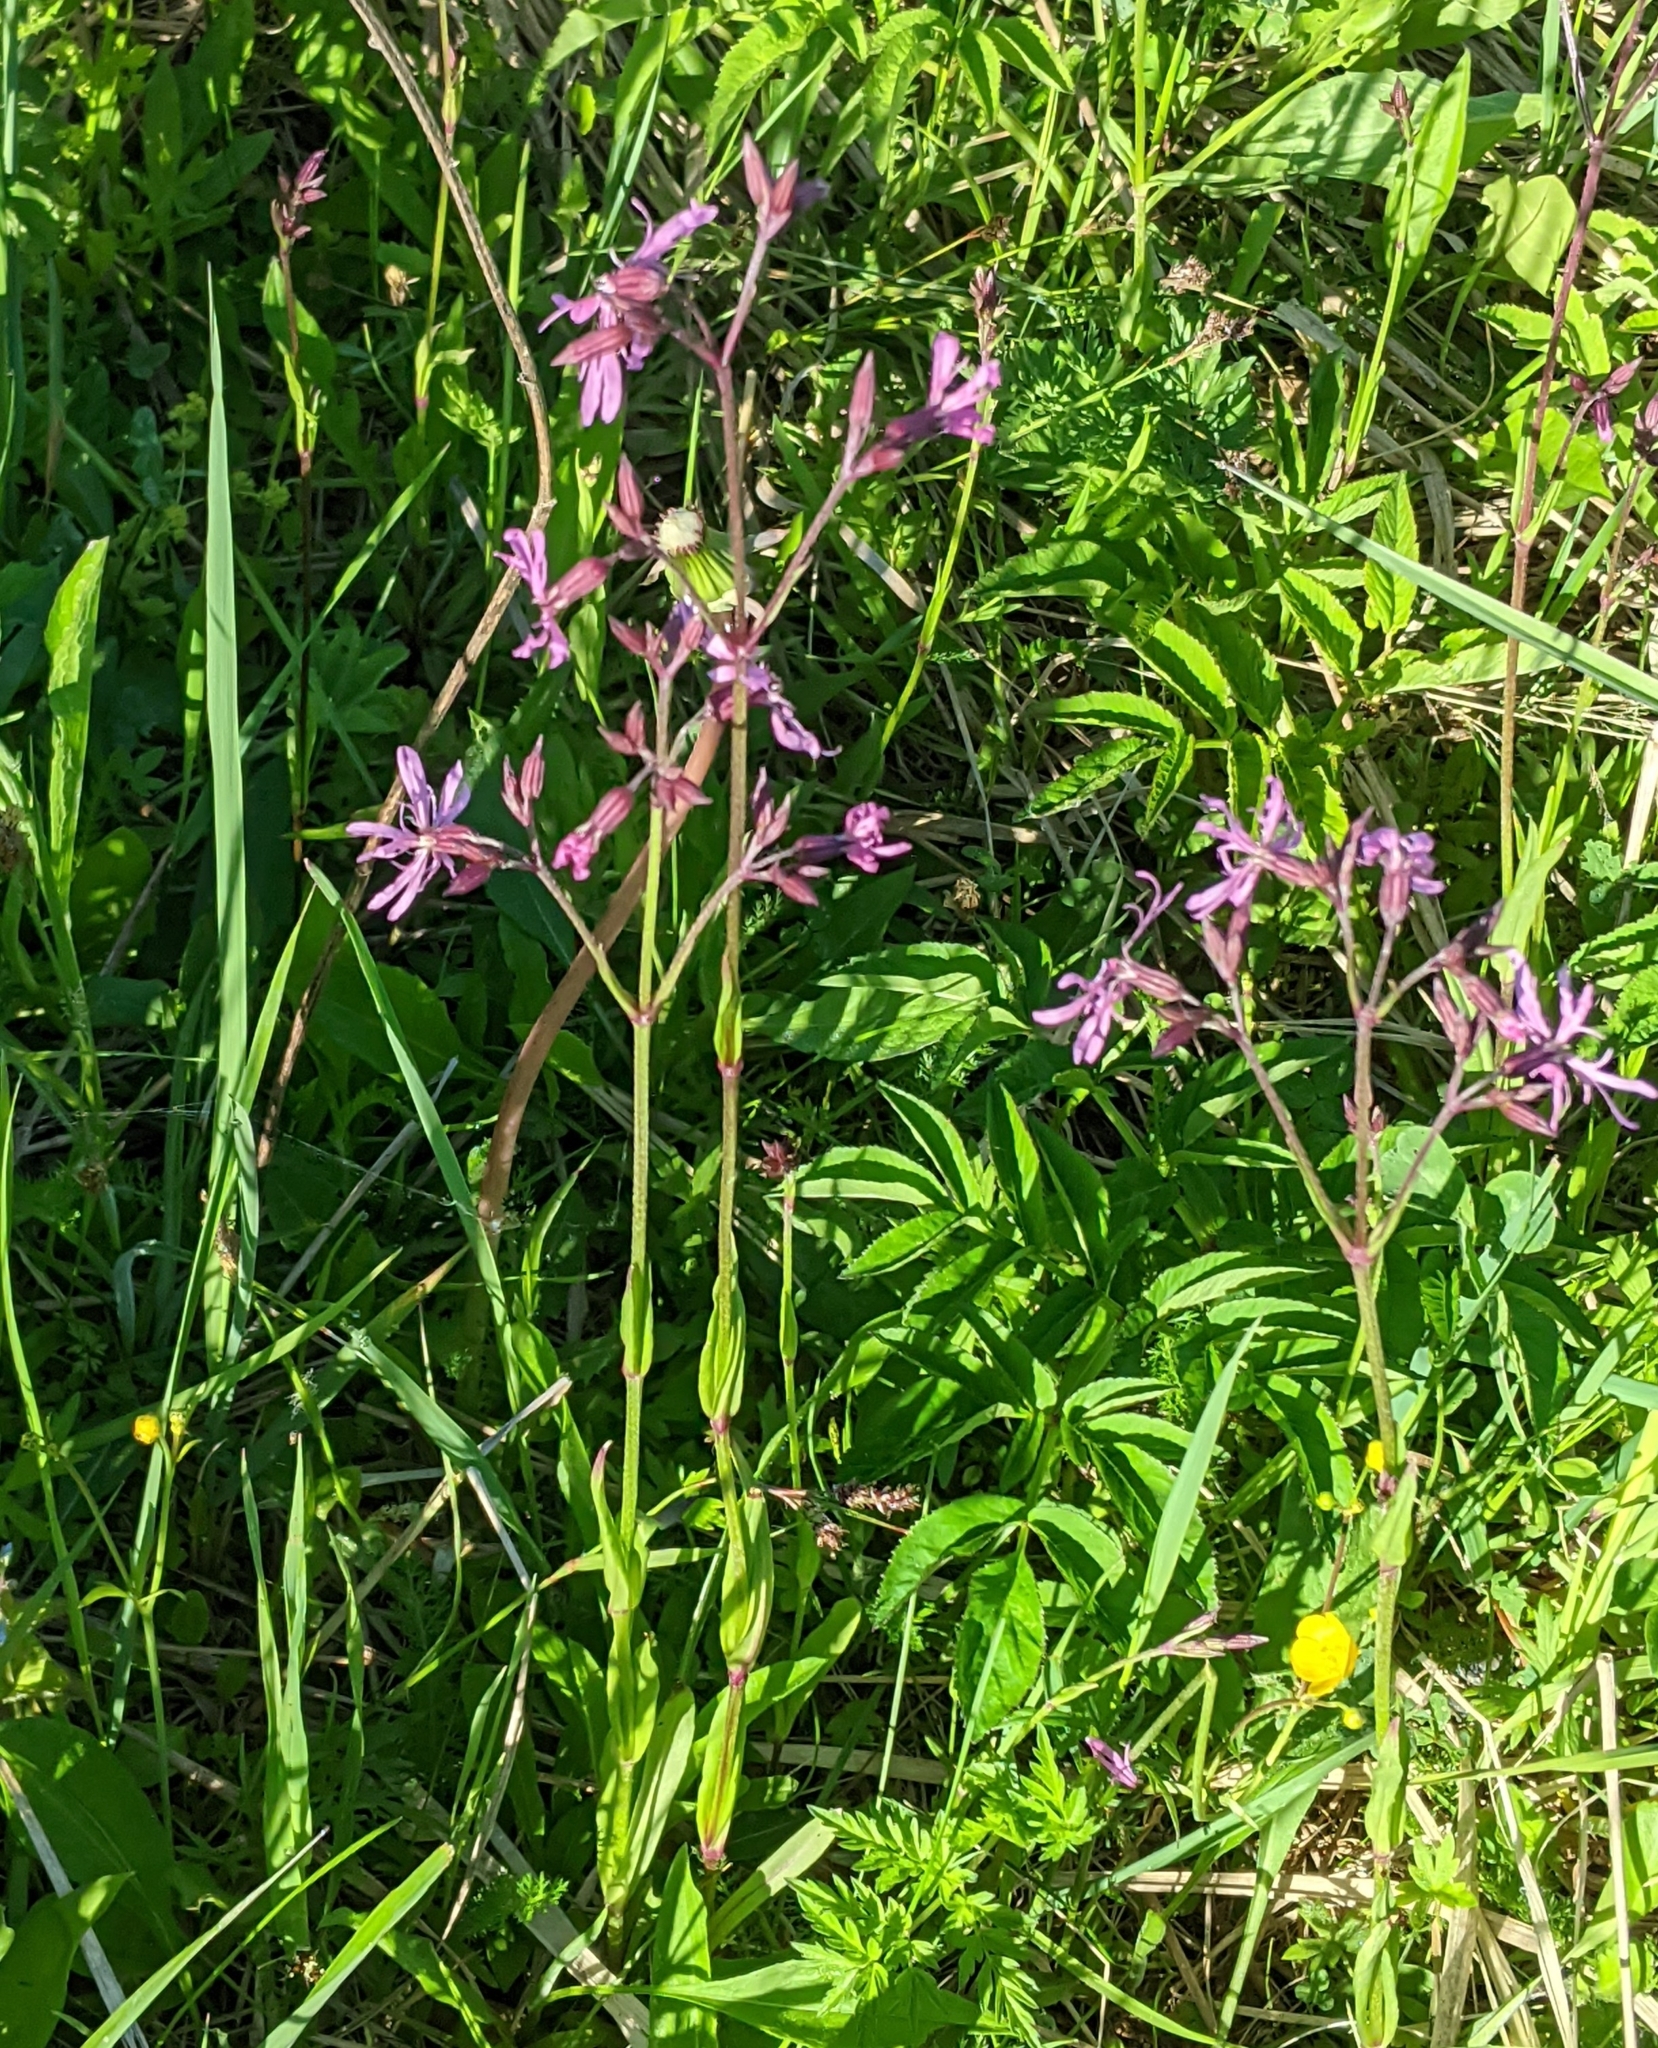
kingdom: Plantae
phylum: Tracheophyta
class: Magnoliopsida
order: Caryophyllales
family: Caryophyllaceae
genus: Silene
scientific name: Silene flos-cuculi
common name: Ragged-robin
